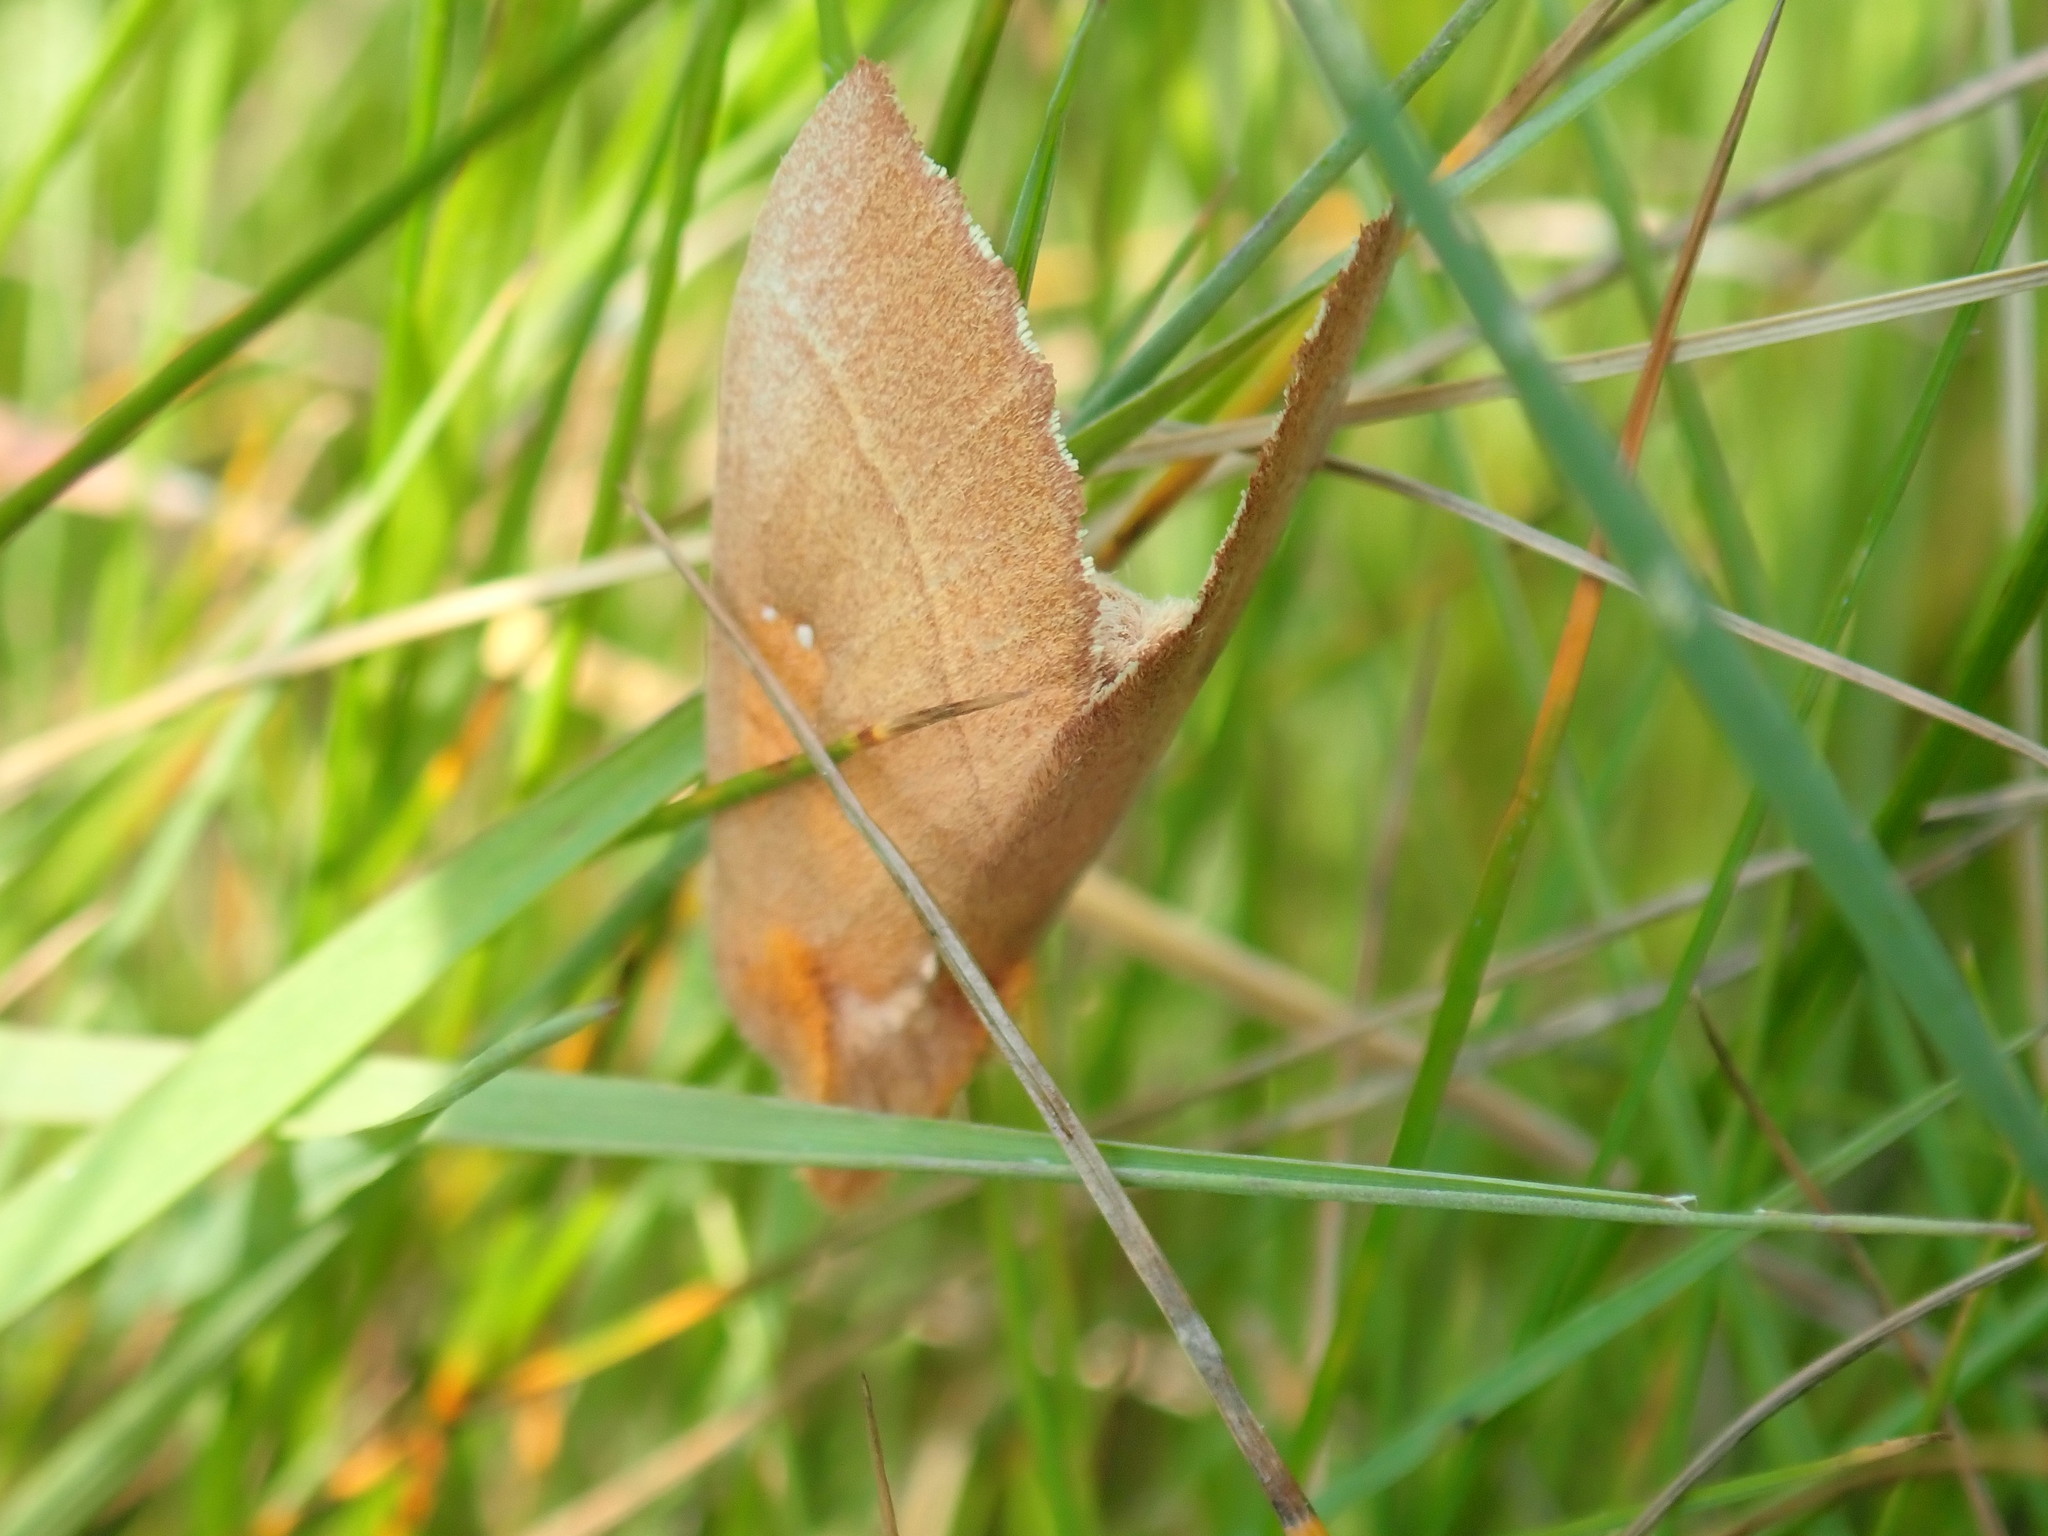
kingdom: Animalia
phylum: Arthropoda
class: Insecta
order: Lepidoptera
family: Notodontidae
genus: Nadata
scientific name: Nadata gibbosa
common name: White-dotted prominent
